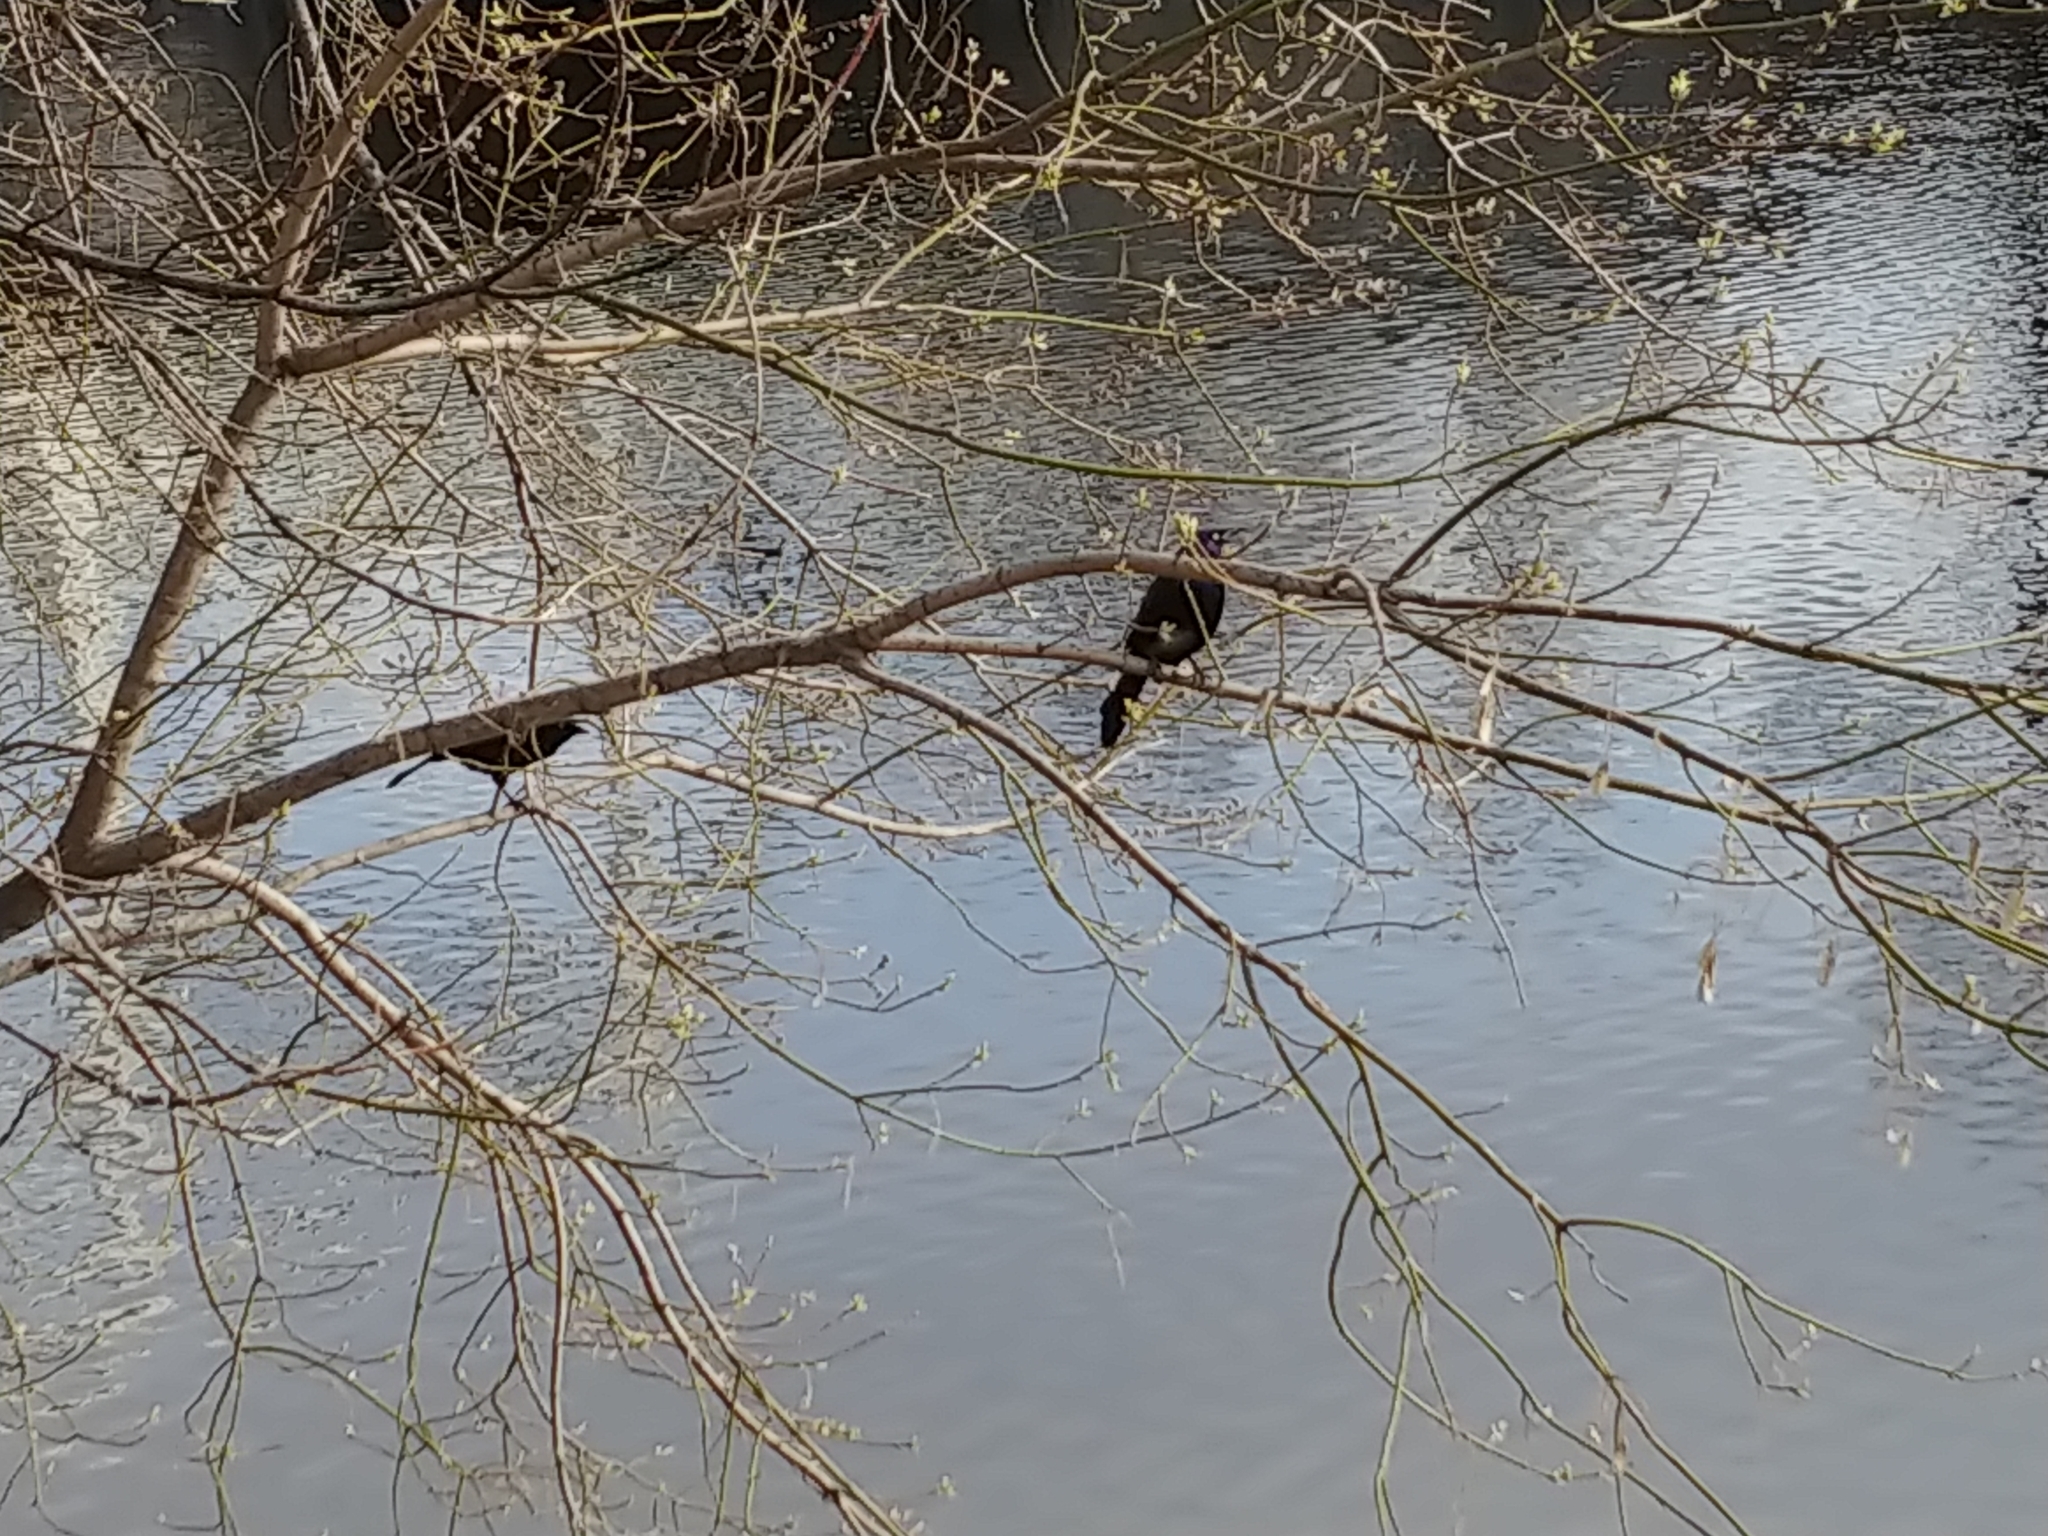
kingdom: Animalia
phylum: Chordata
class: Aves
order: Passeriformes
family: Icteridae
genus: Quiscalus
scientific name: Quiscalus quiscula
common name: Common grackle
